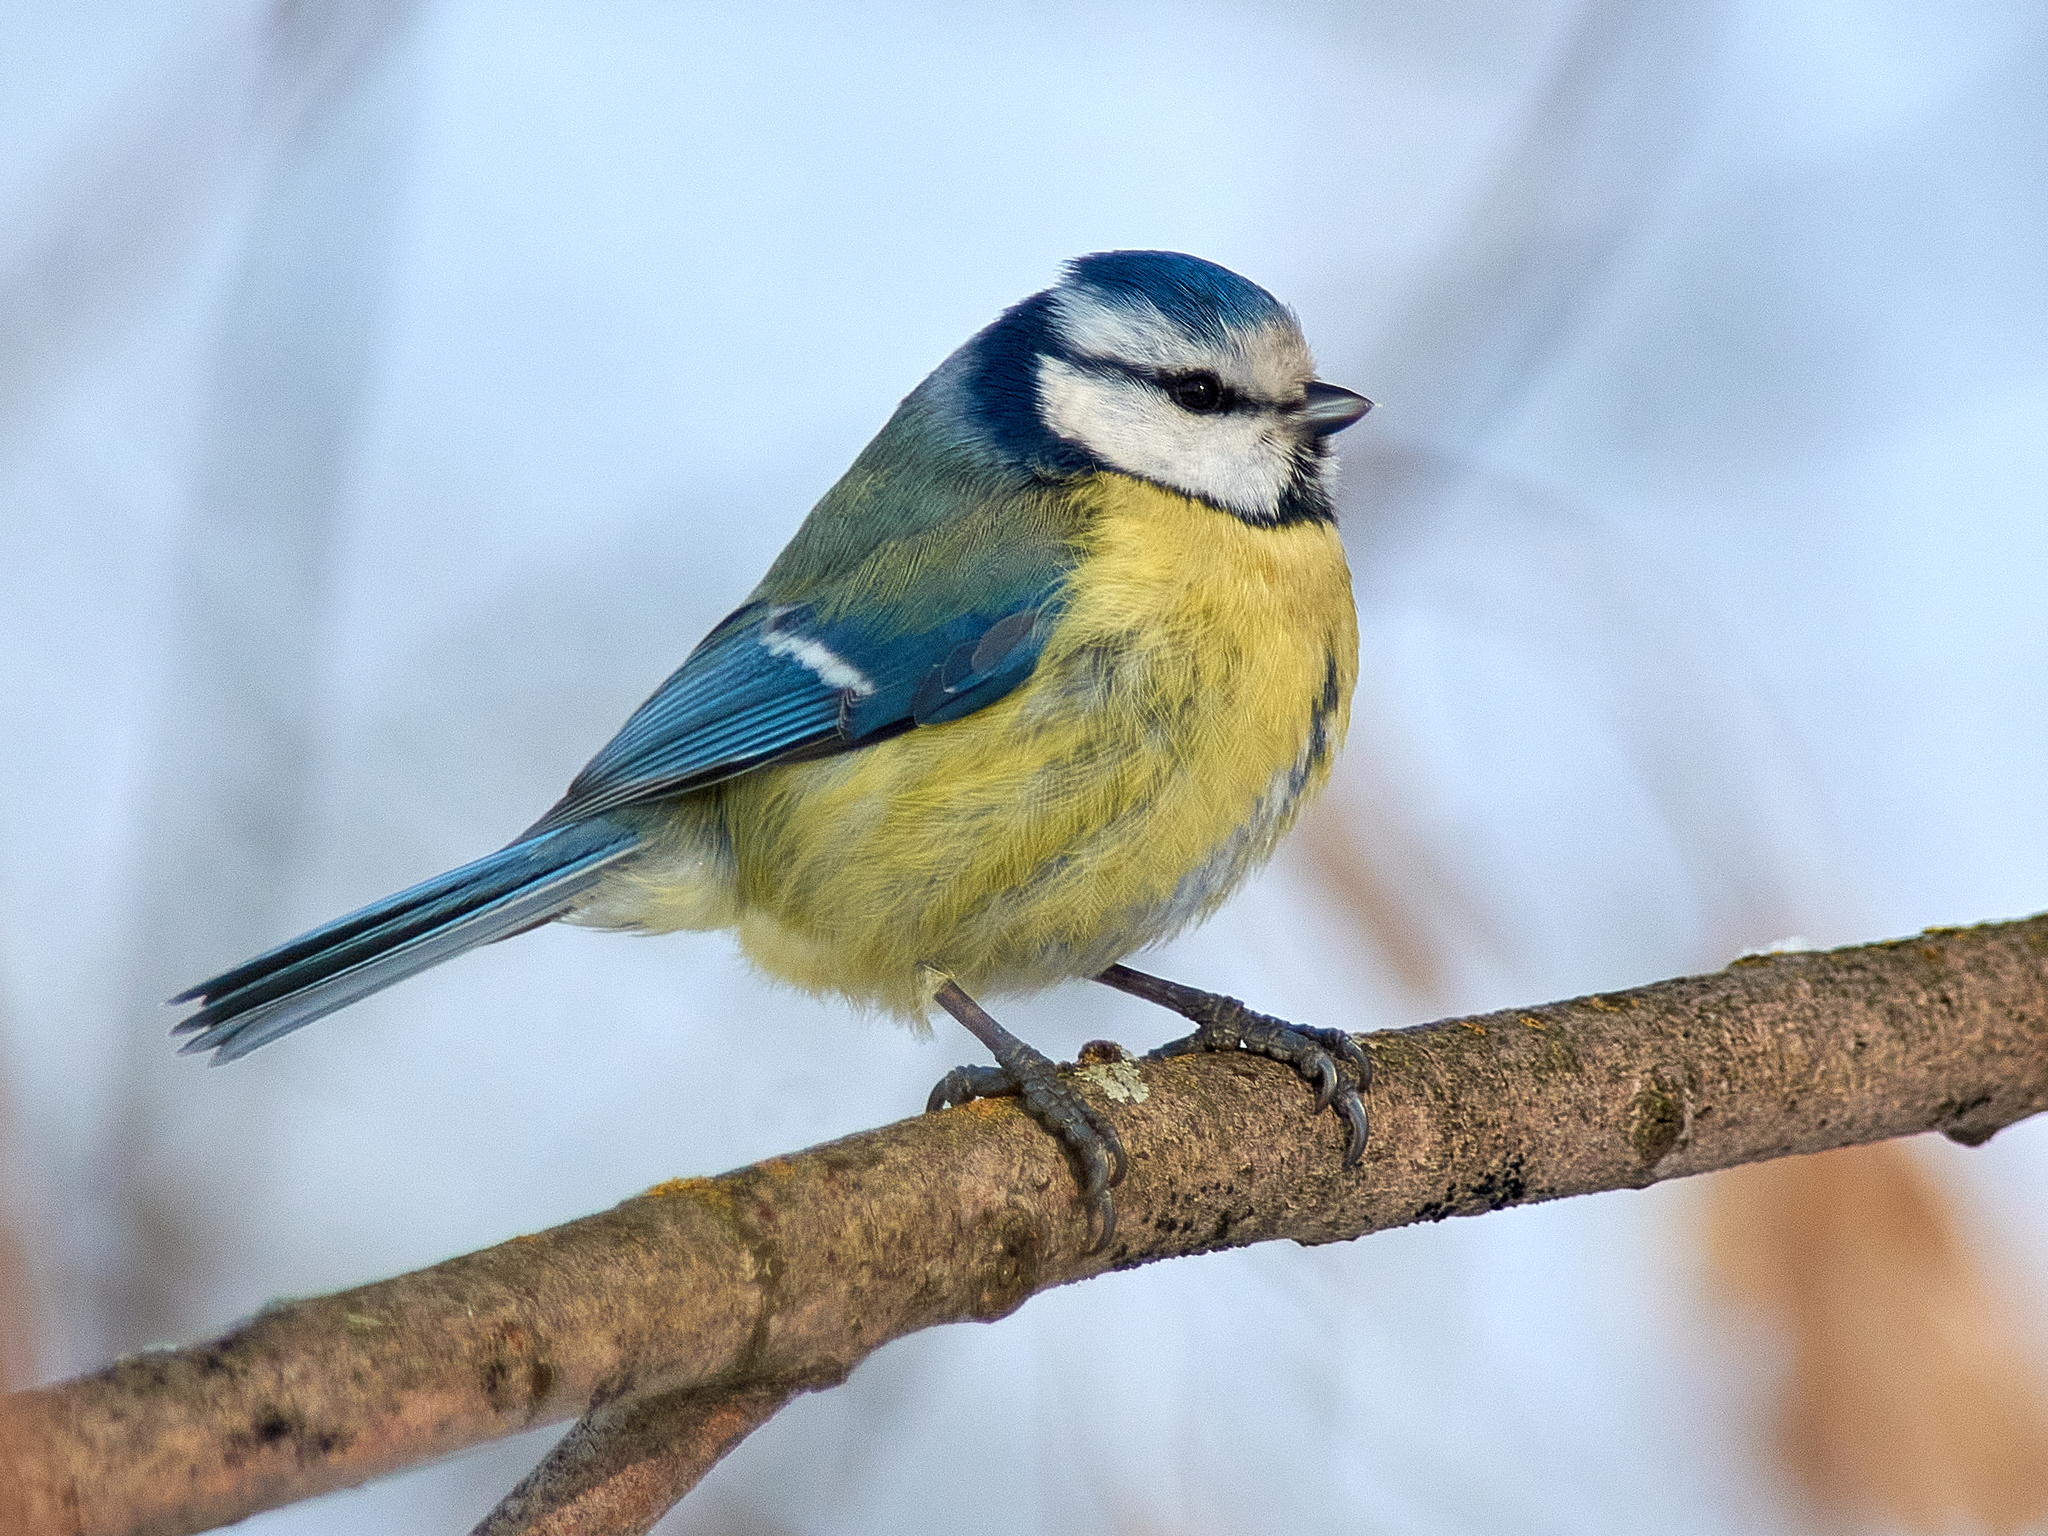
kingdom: Animalia
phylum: Chordata
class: Aves
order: Passeriformes
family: Paridae
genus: Cyanistes
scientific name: Cyanistes caeruleus
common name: Eurasian blue tit
